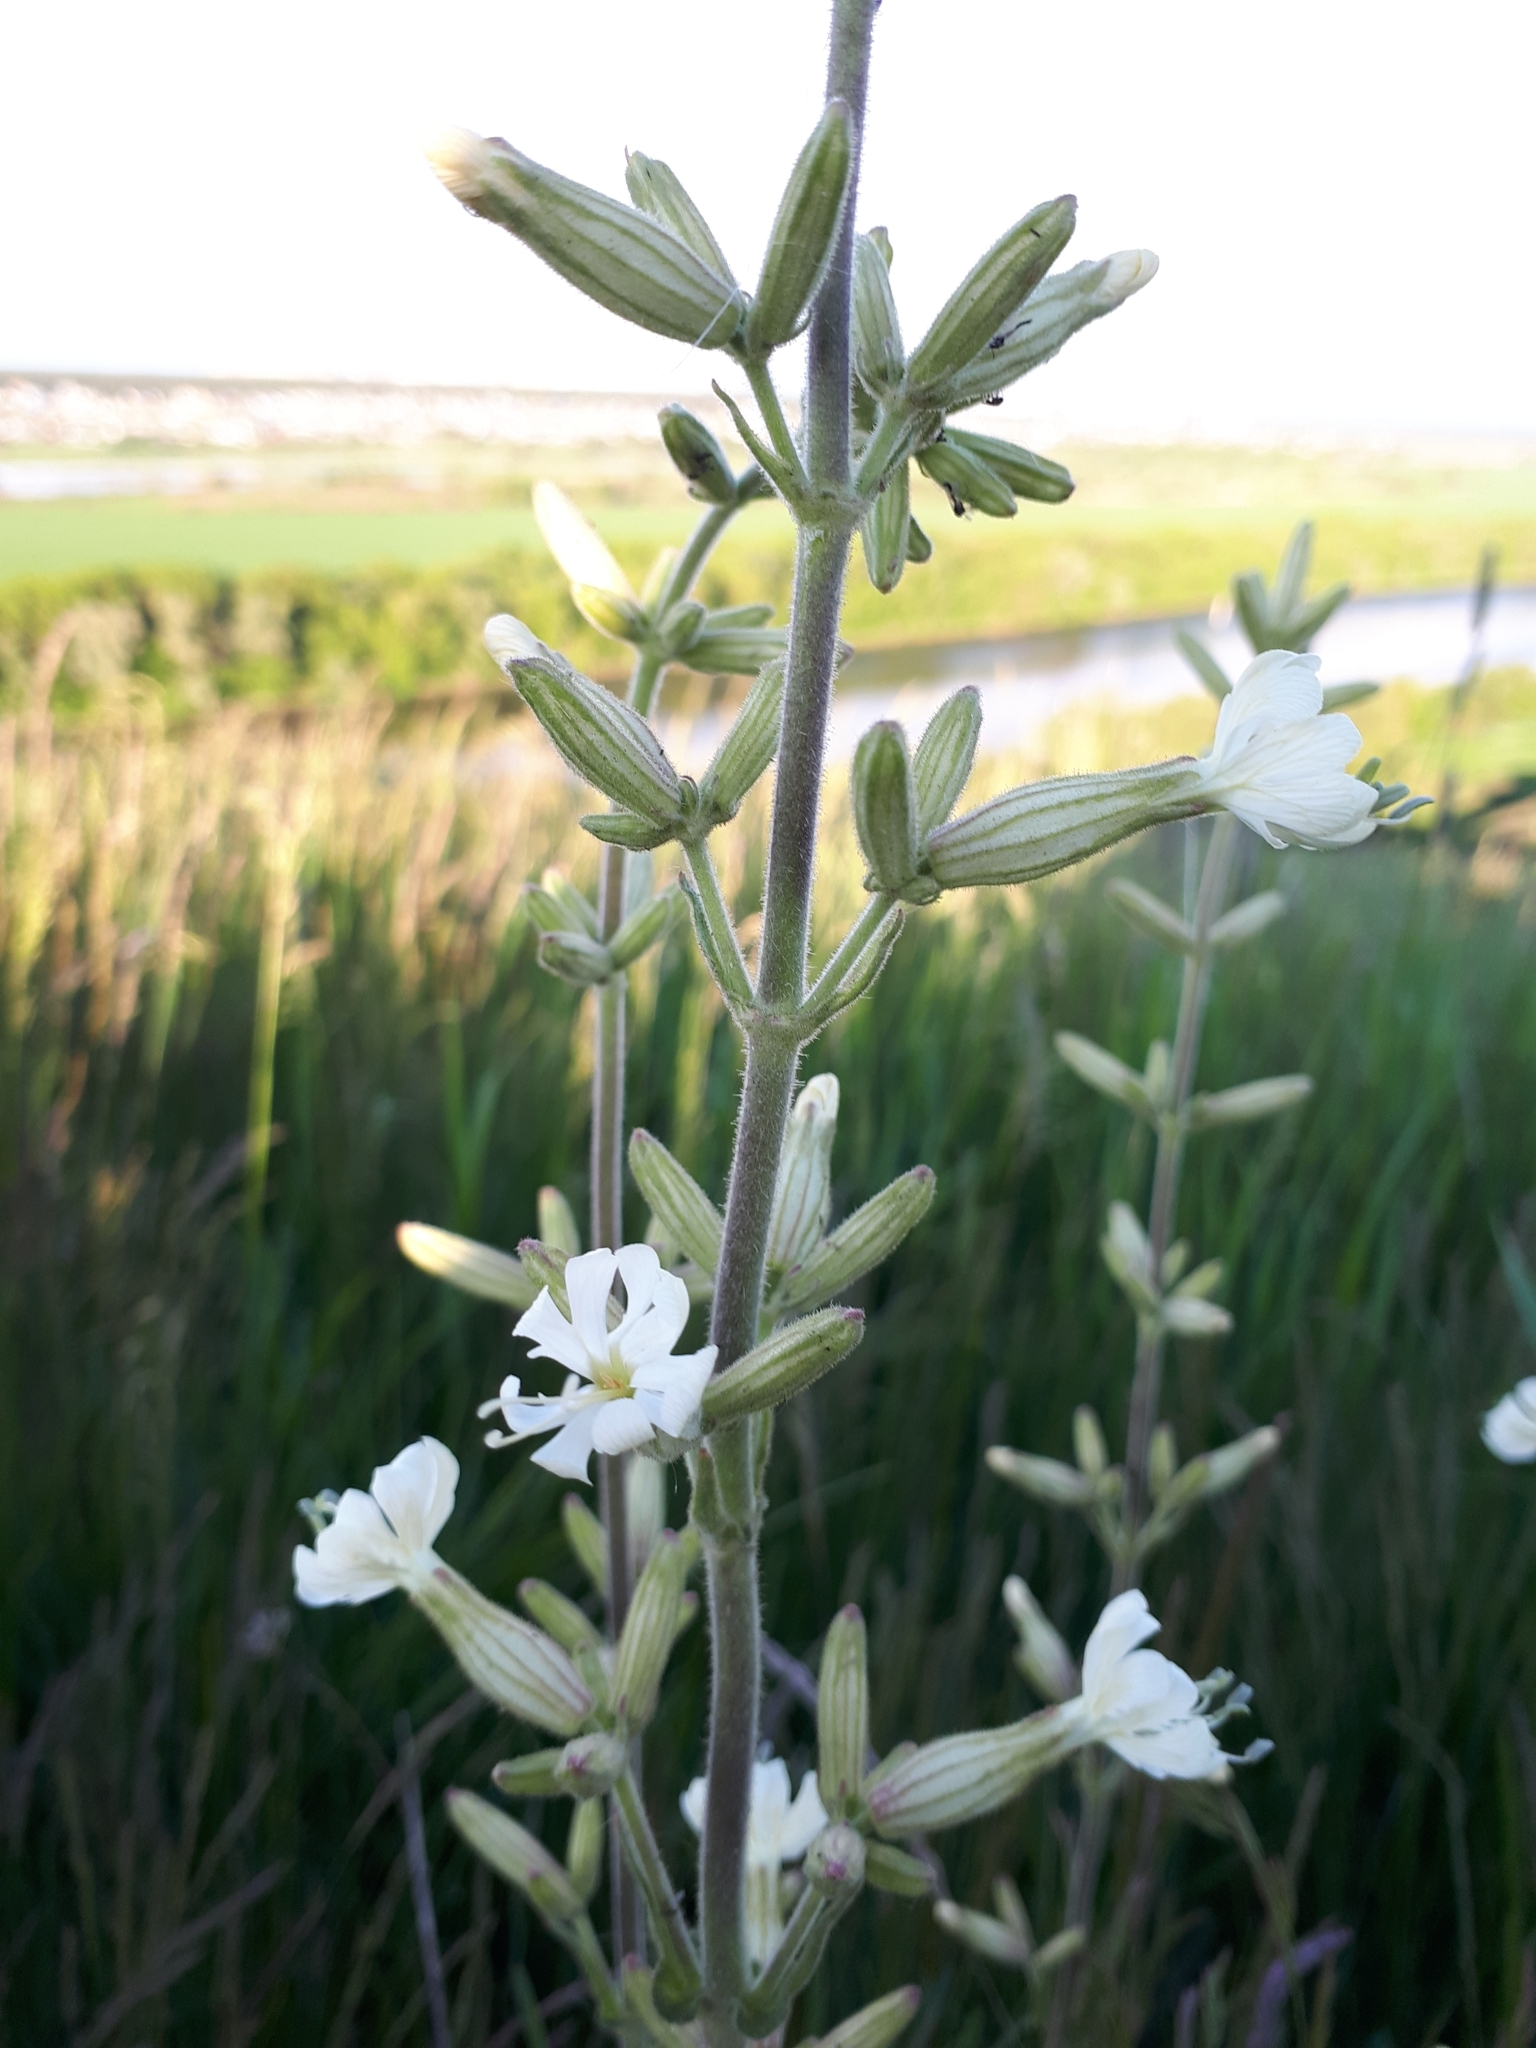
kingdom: Plantae
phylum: Tracheophyta
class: Magnoliopsida
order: Caryophyllales
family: Caryophyllaceae
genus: Silene
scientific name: Silene viscosa
